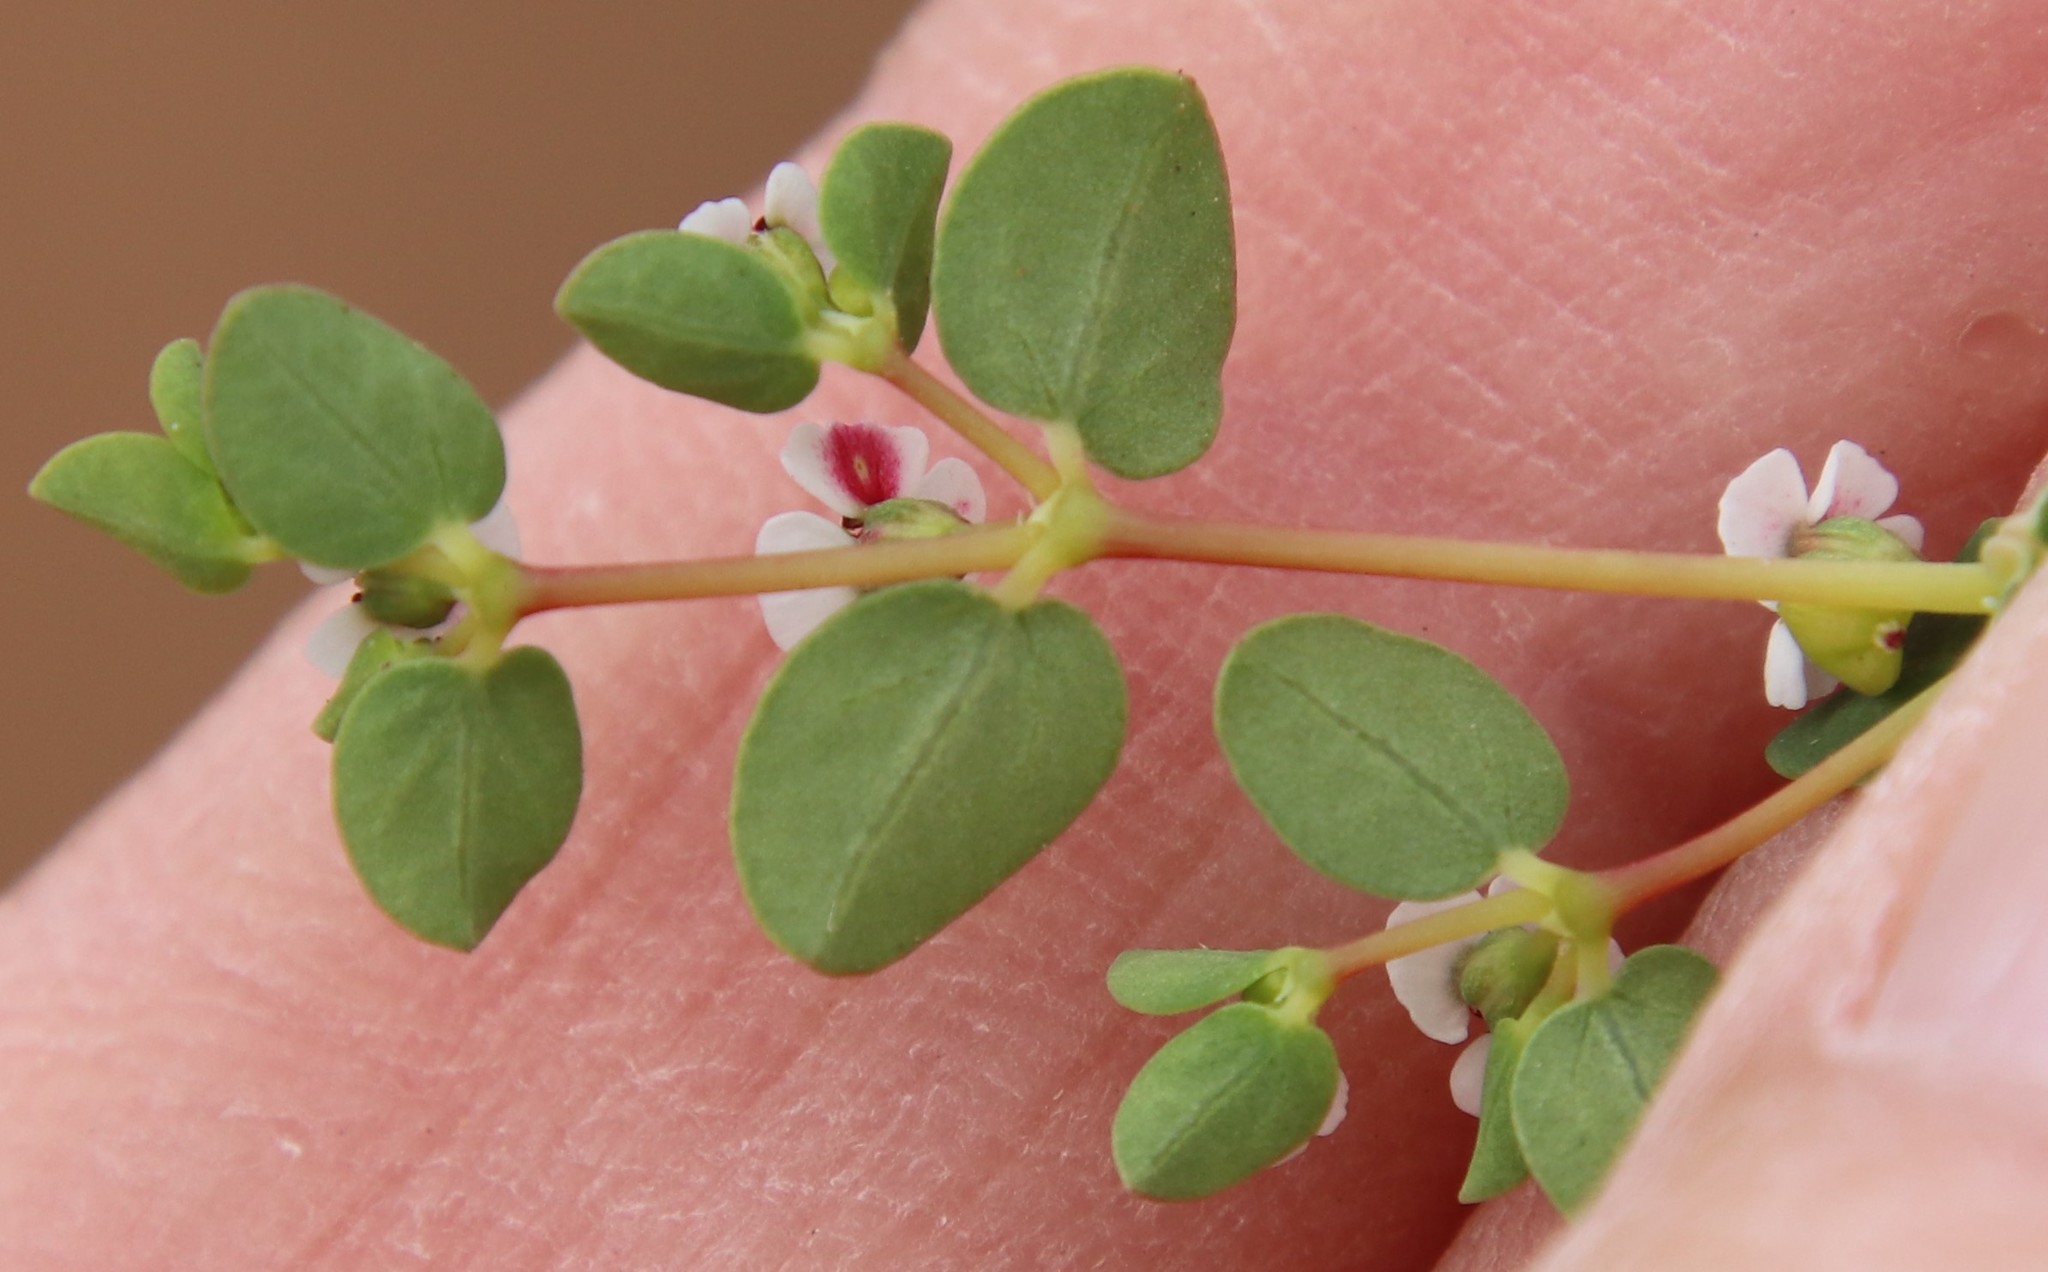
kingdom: Plantae
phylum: Tracheophyta
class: Magnoliopsida
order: Malpighiales
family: Euphorbiaceae
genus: Euphorbia
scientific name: Euphorbia polycarpa
